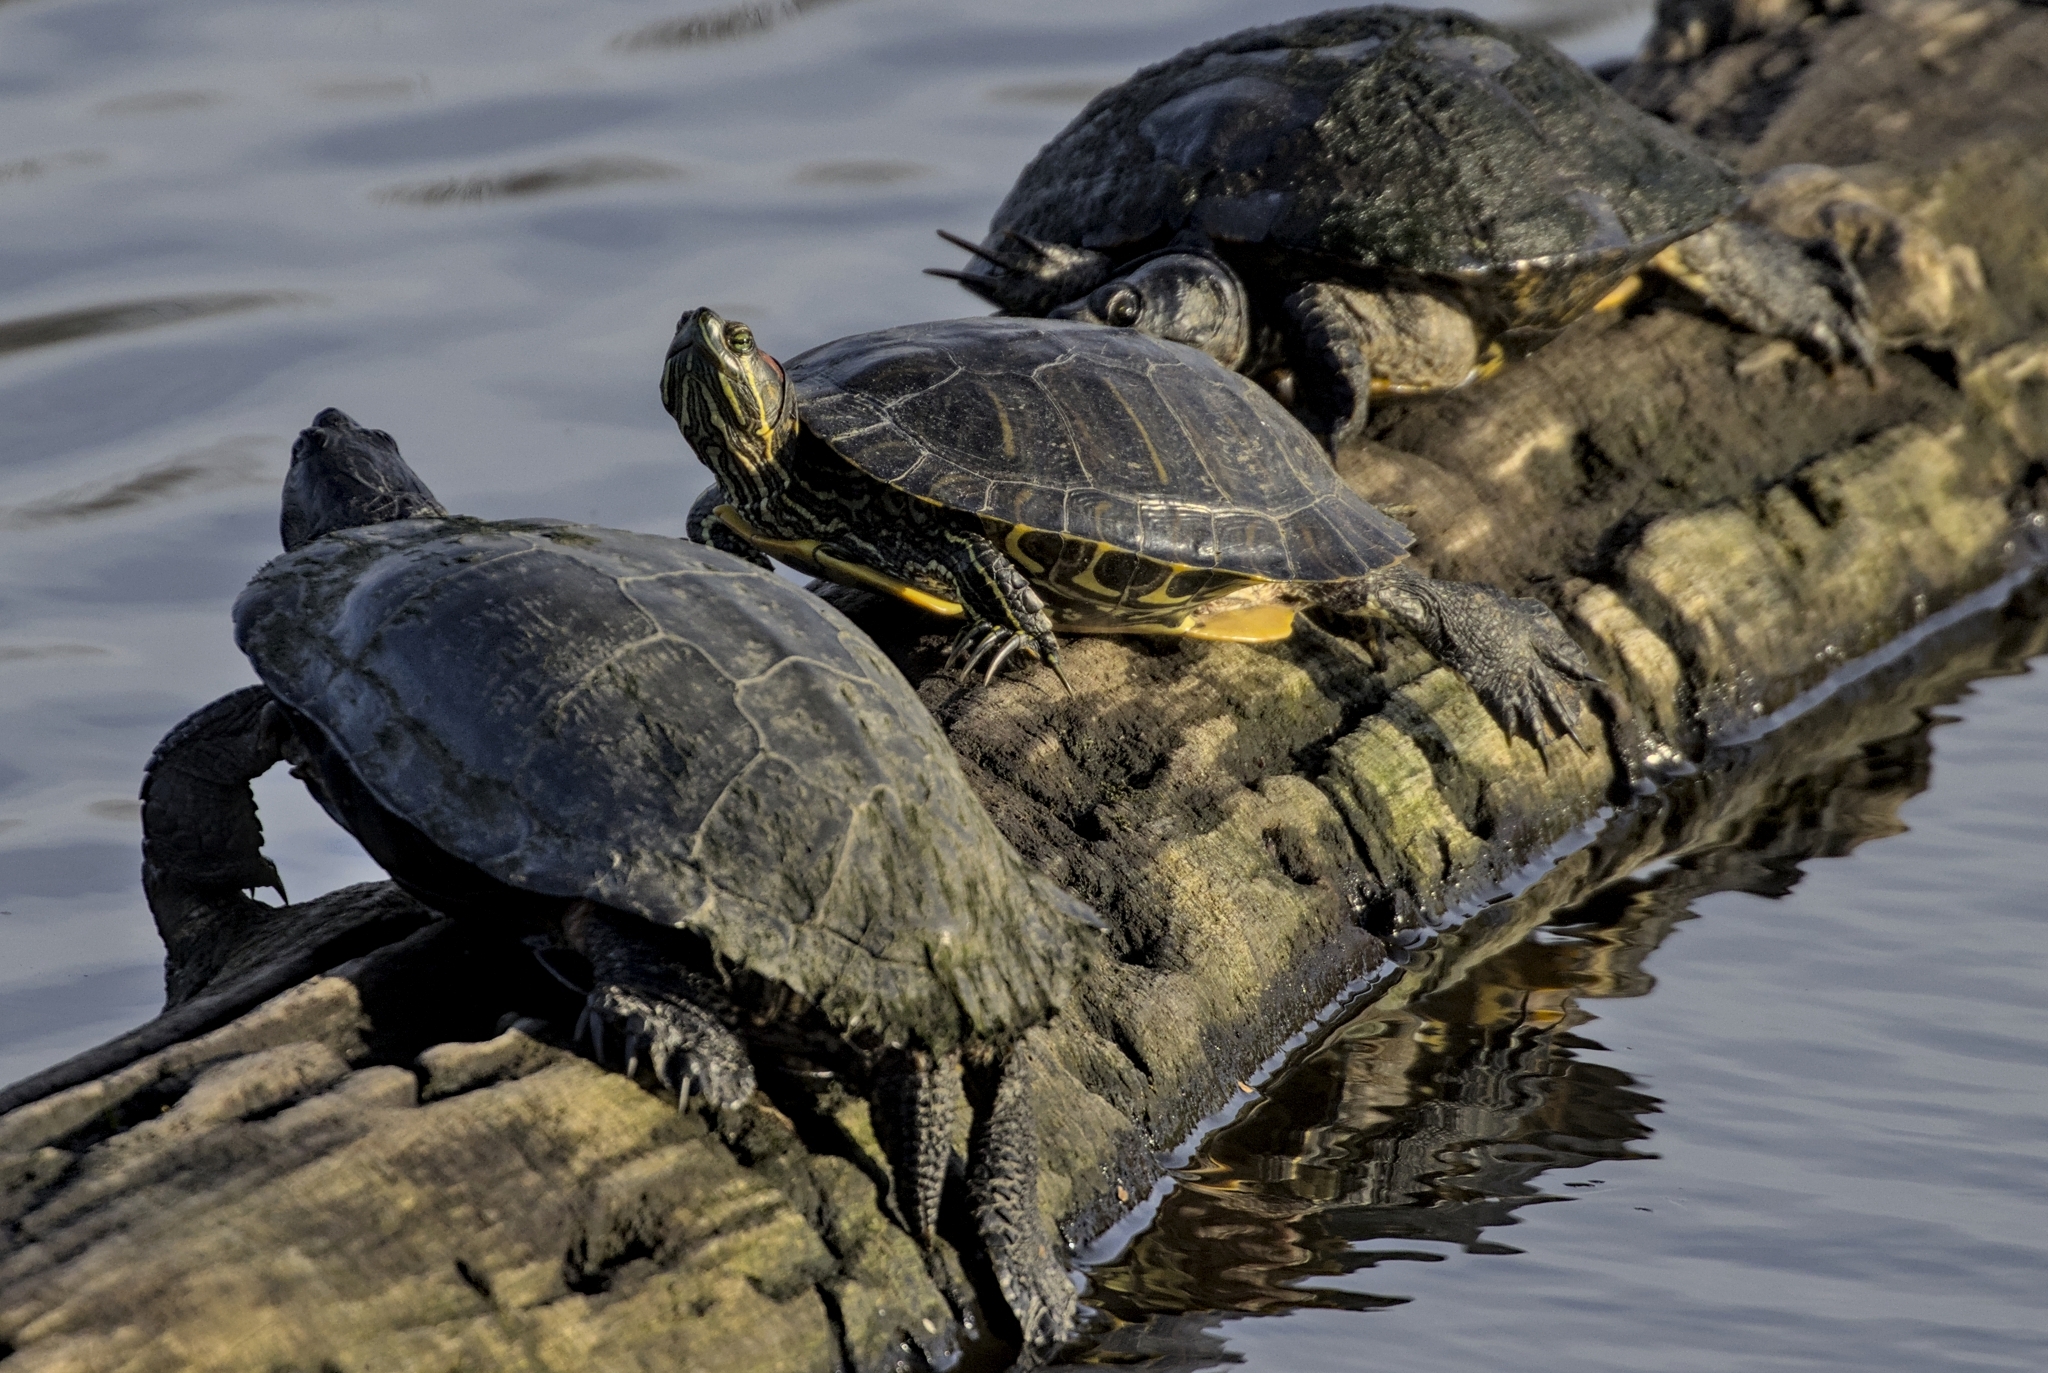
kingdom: Animalia
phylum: Chordata
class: Testudines
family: Emydidae
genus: Trachemys
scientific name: Trachemys scripta
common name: Slider
